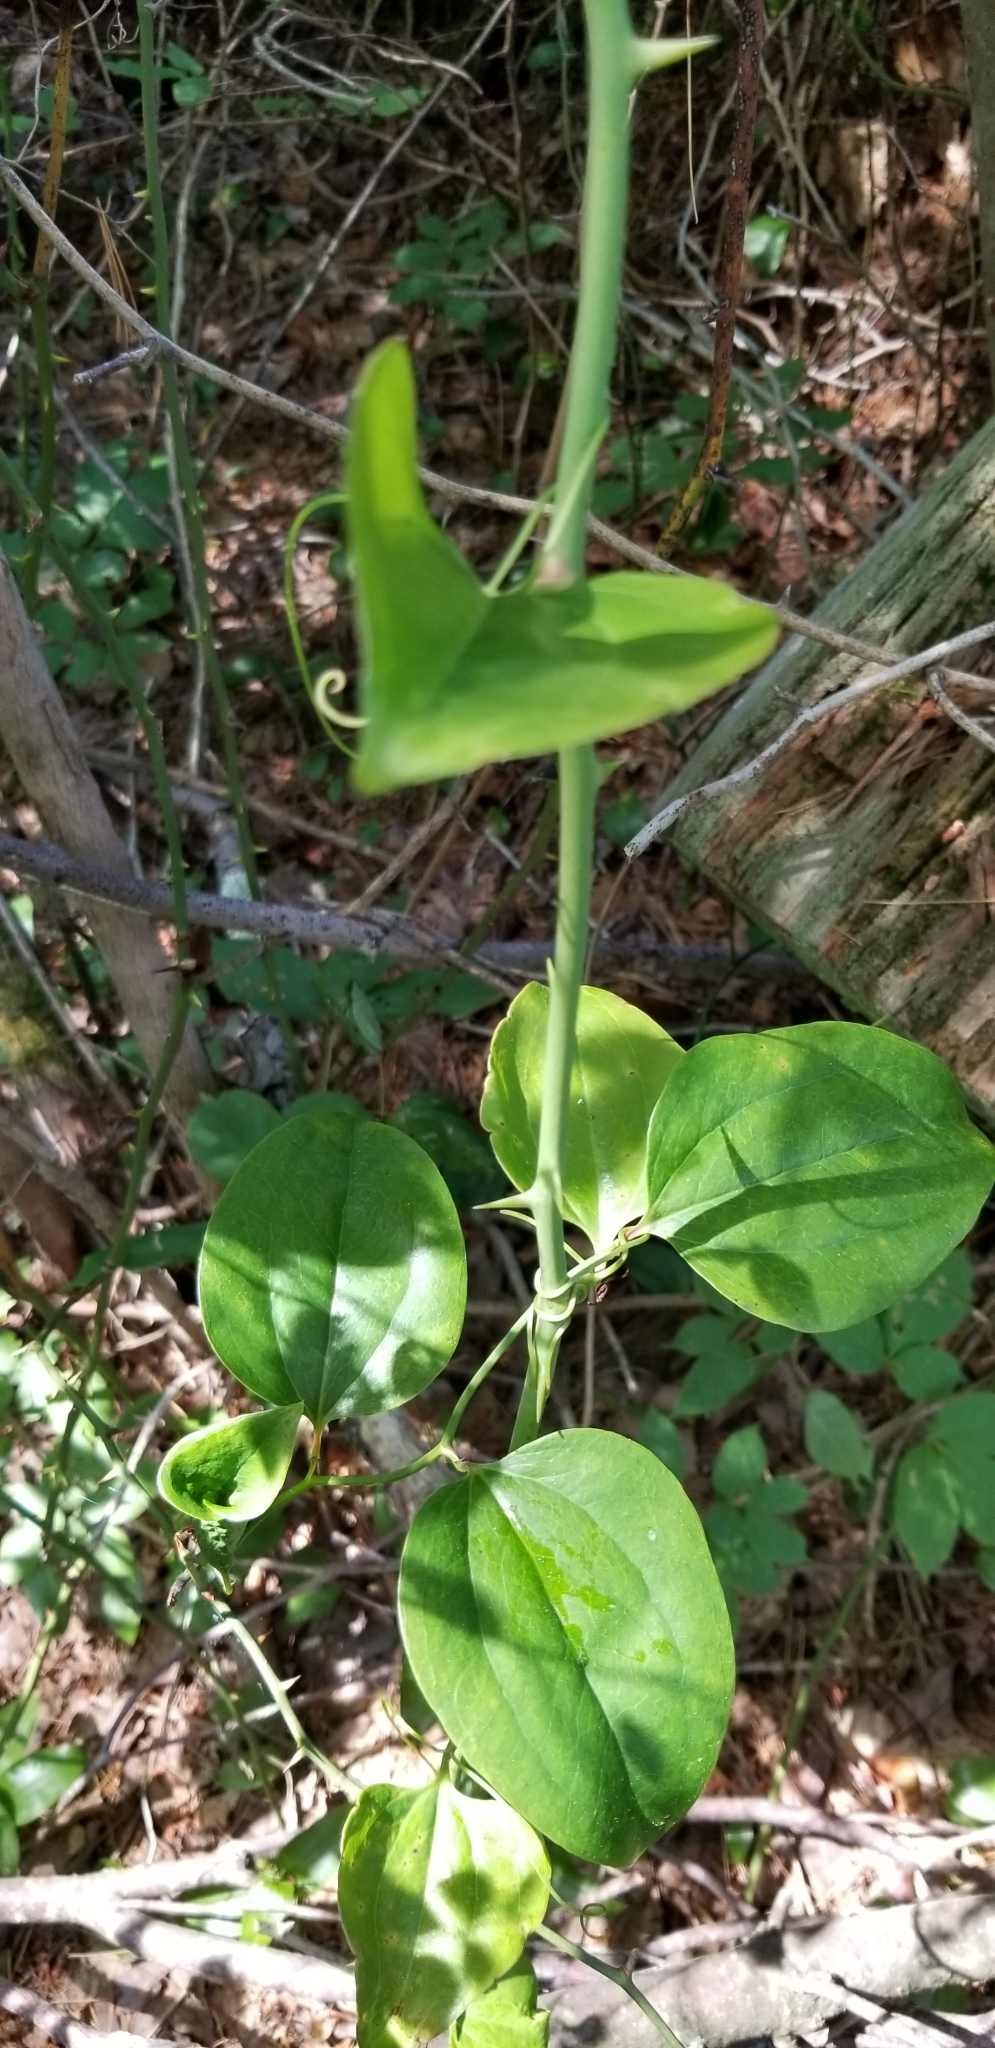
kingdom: Plantae
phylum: Tracheophyta
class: Liliopsida
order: Liliales
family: Smilacaceae
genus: Smilax
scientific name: Smilax rotundifolia
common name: Bullbriar
